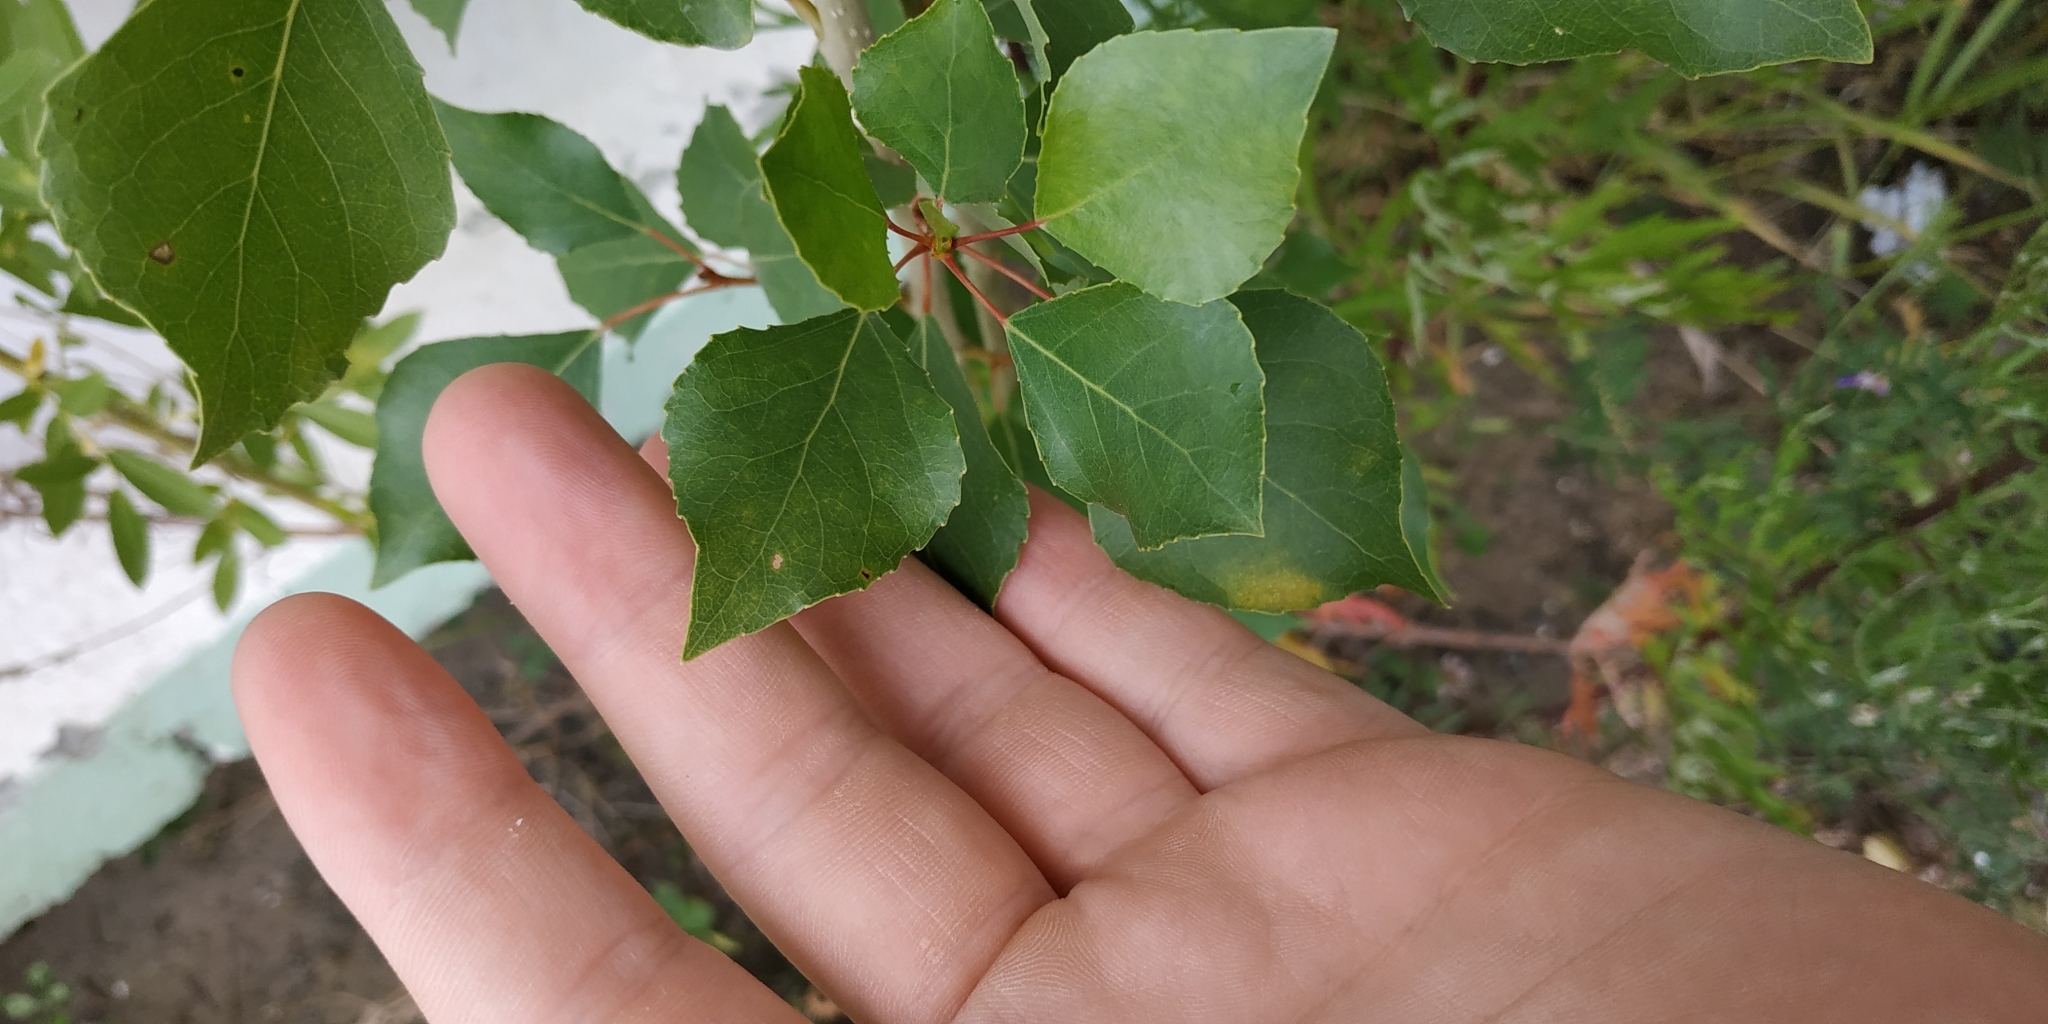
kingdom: Plantae
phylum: Tracheophyta
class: Magnoliopsida
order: Malpighiales
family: Salicaceae
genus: Populus
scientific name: Populus nigra
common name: Black poplar
